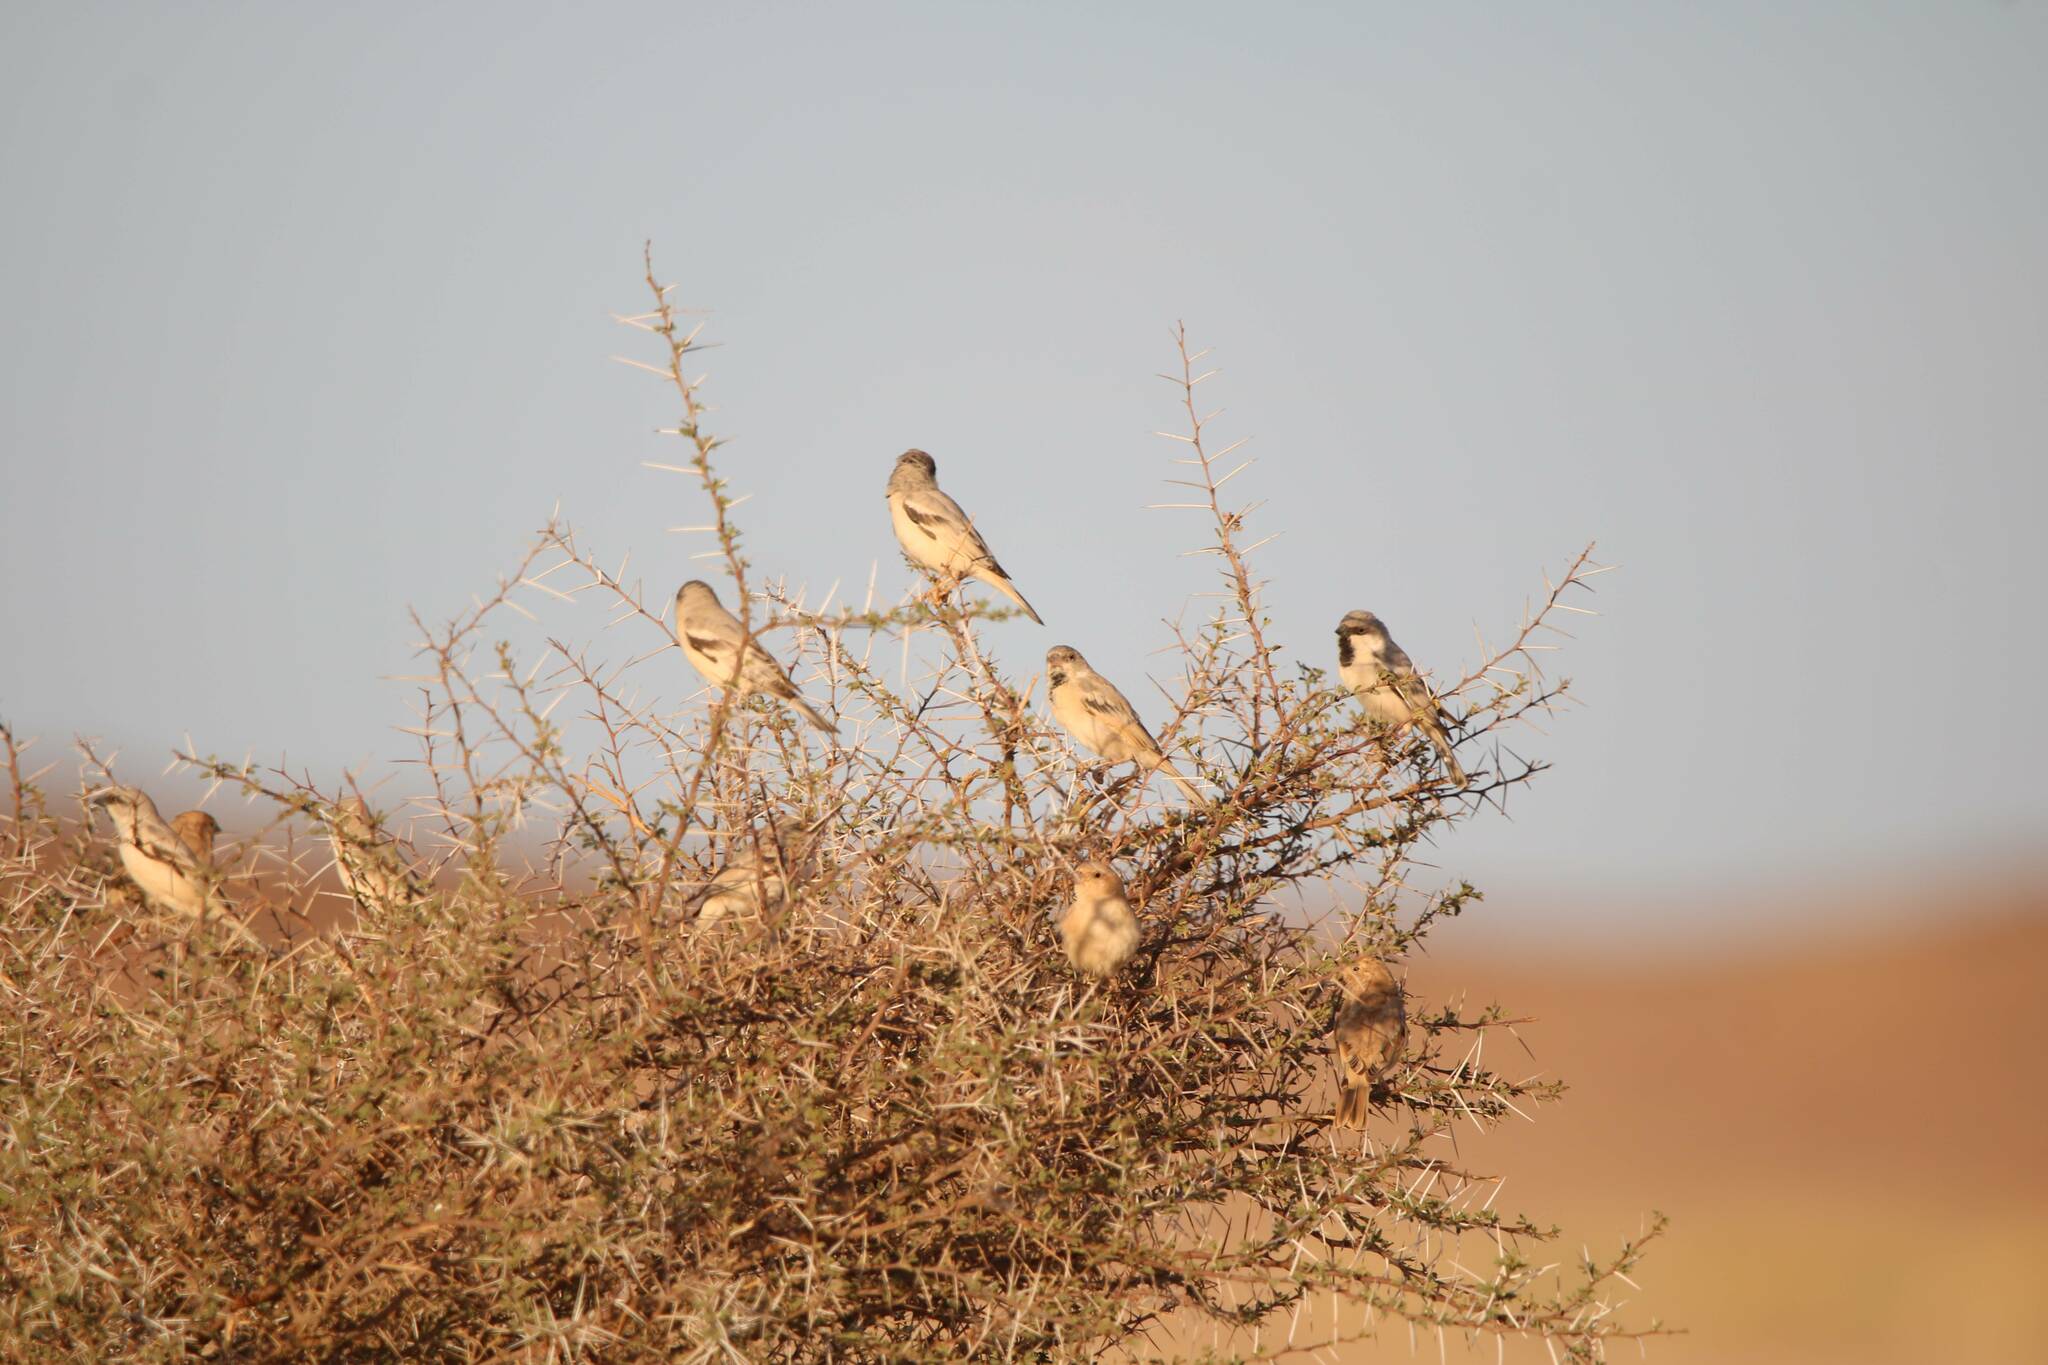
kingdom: Animalia
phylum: Chordata
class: Aves
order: Passeriformes
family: Passeridae
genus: Passer
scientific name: Passer simplex
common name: Desert sparrow
